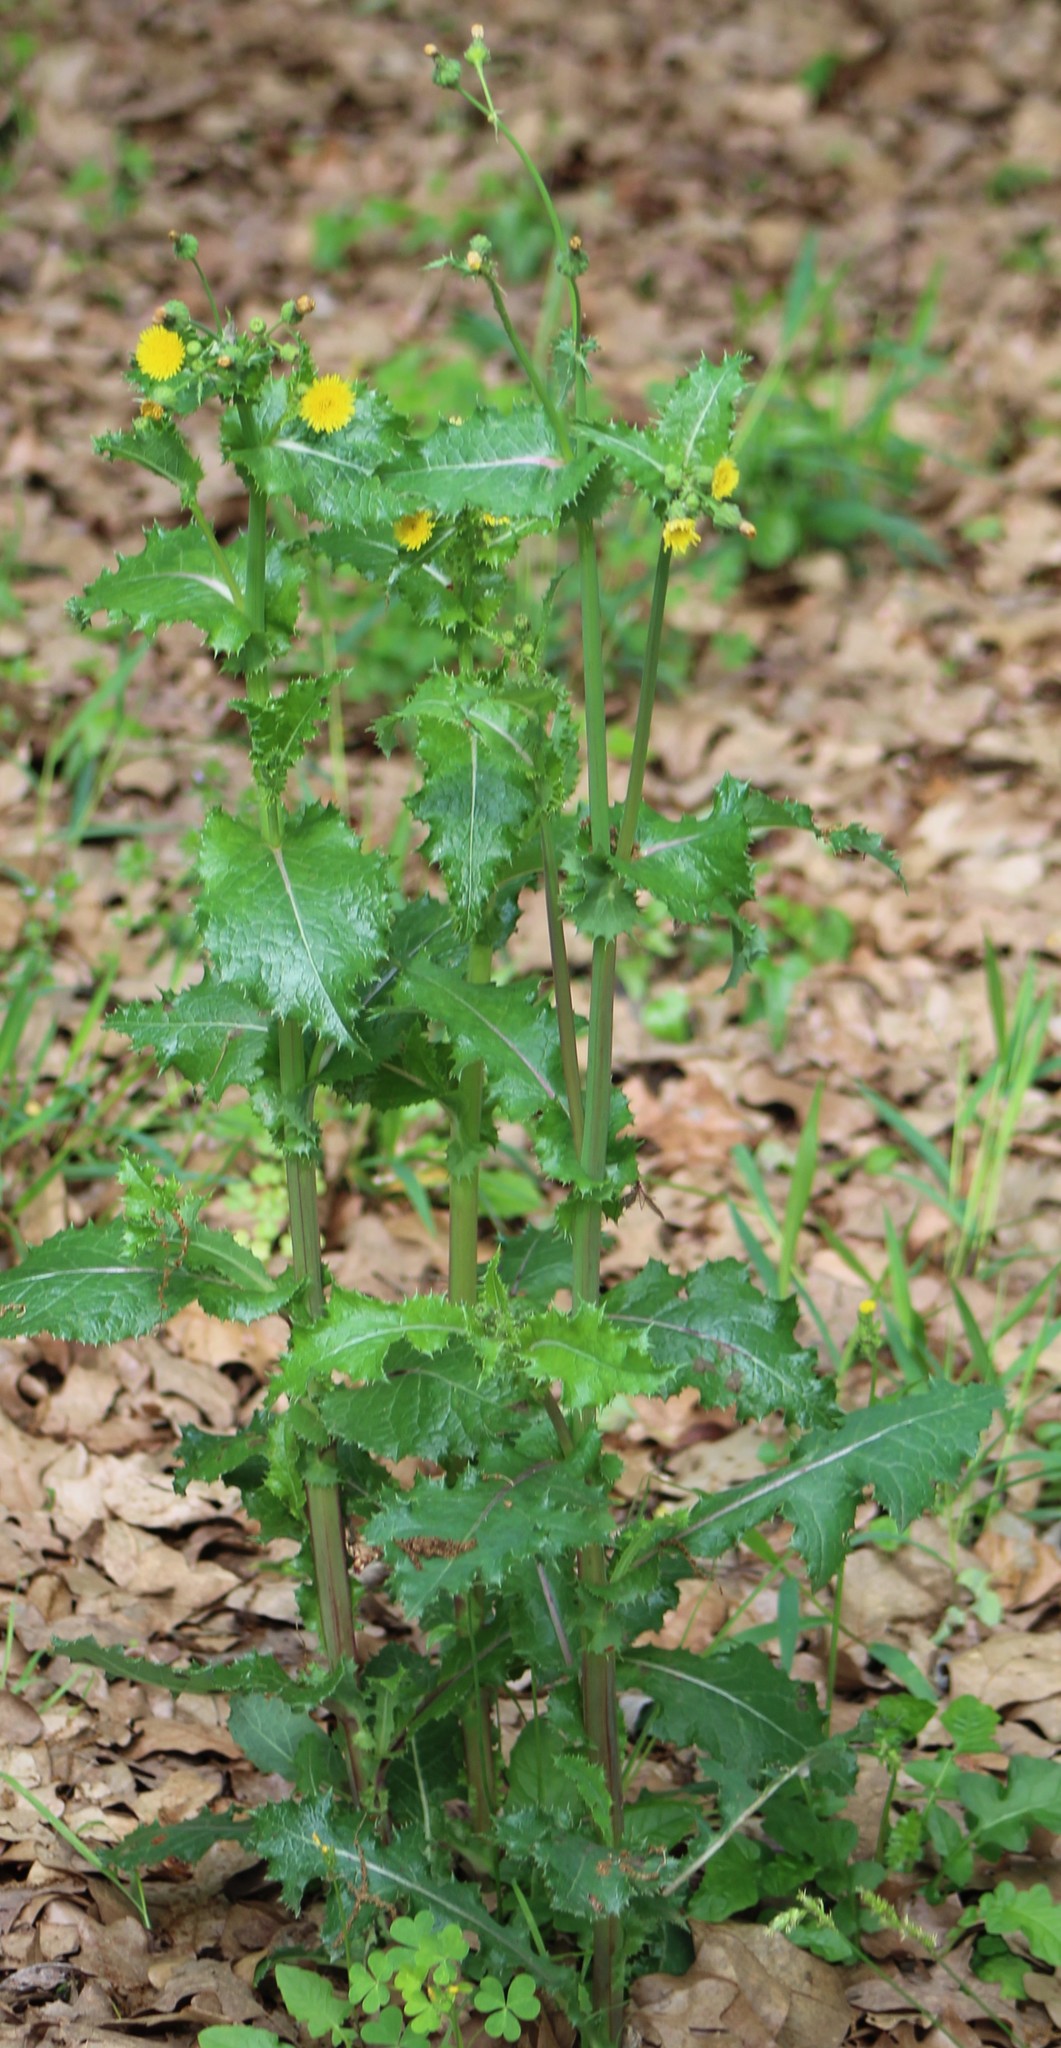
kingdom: Plantae
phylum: Tracheophyta
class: Magnoliopsida
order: Asterales
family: Asteraceae
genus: Sonchus
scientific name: Sonchus asper
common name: Prickly sow-thistle
